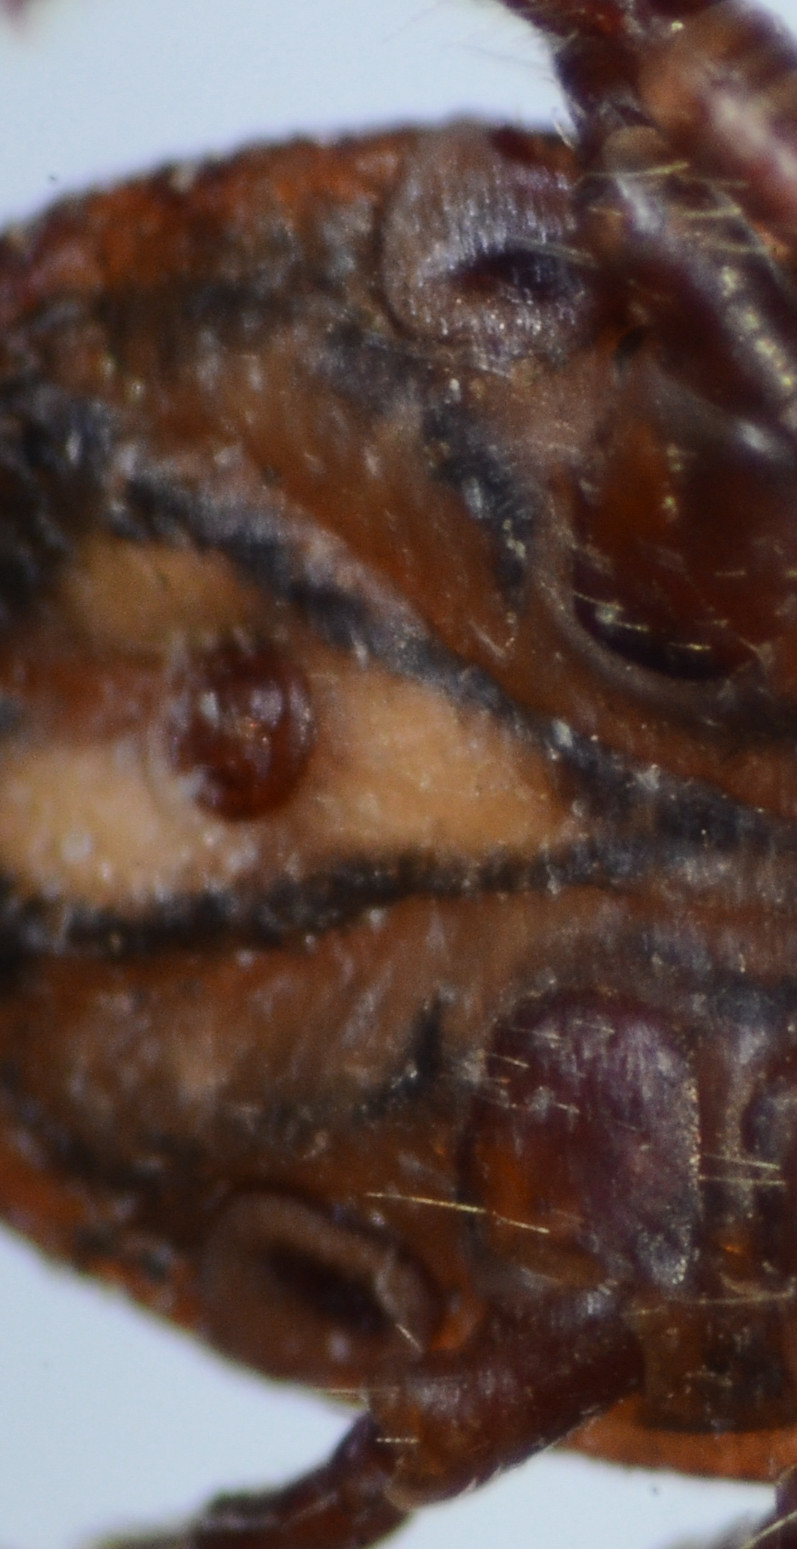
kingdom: Animalia
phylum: Arthropoda
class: Arachnida
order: Ixodida
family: Ixodidae
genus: Dermacentor
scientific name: Dermacentor occidentalis
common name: Net tick
